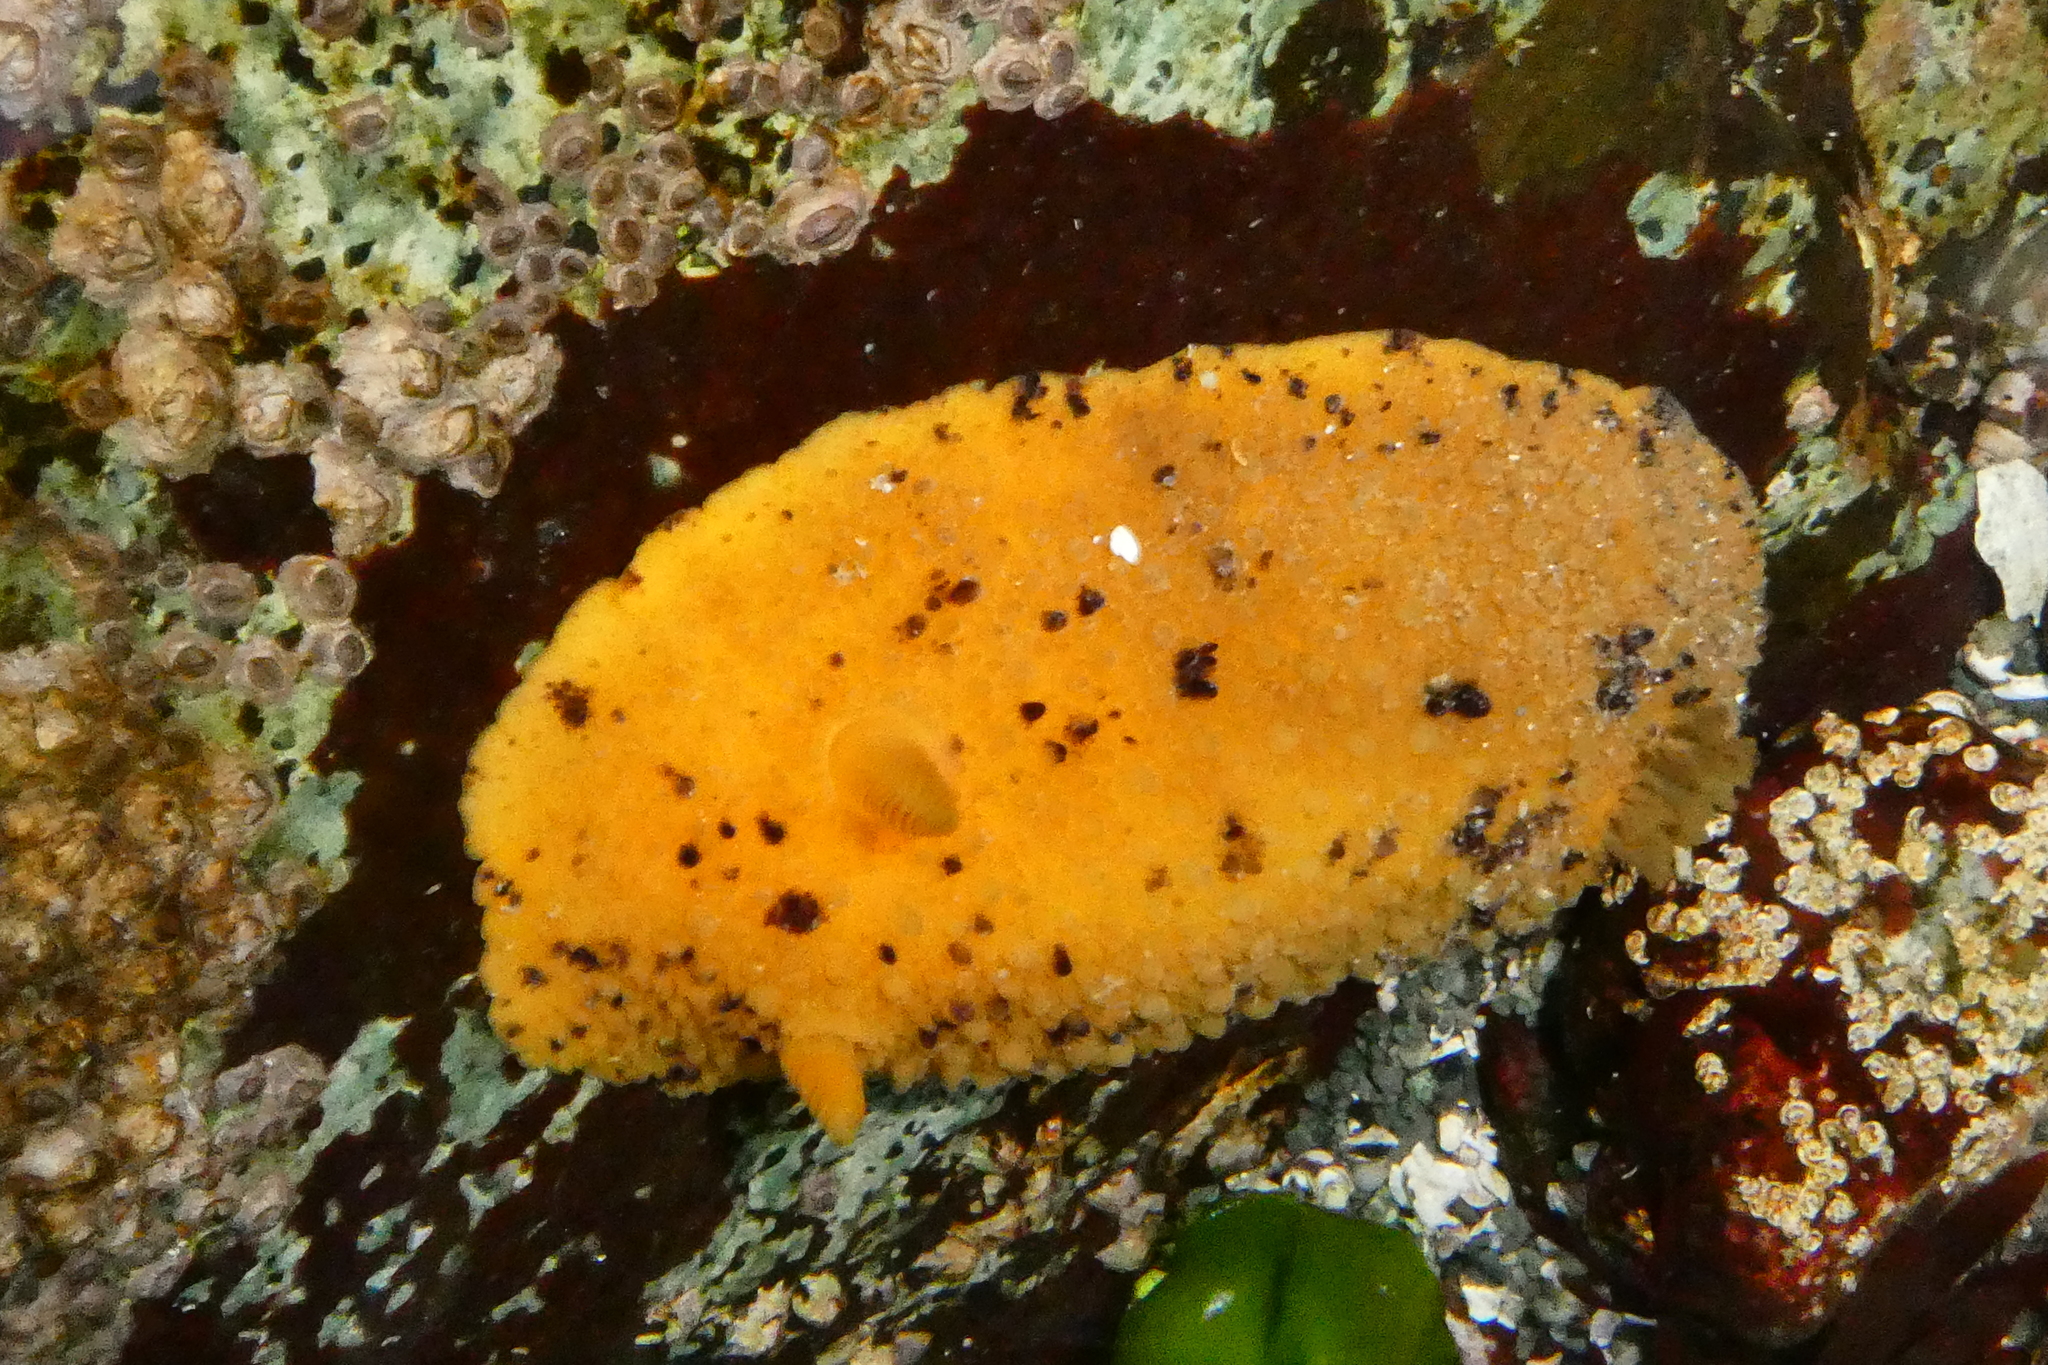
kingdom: Animalia
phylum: Mollusca
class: Gastropoda
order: Nudibranchia
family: Dorididae
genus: Doris
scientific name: Doris montereyensis
